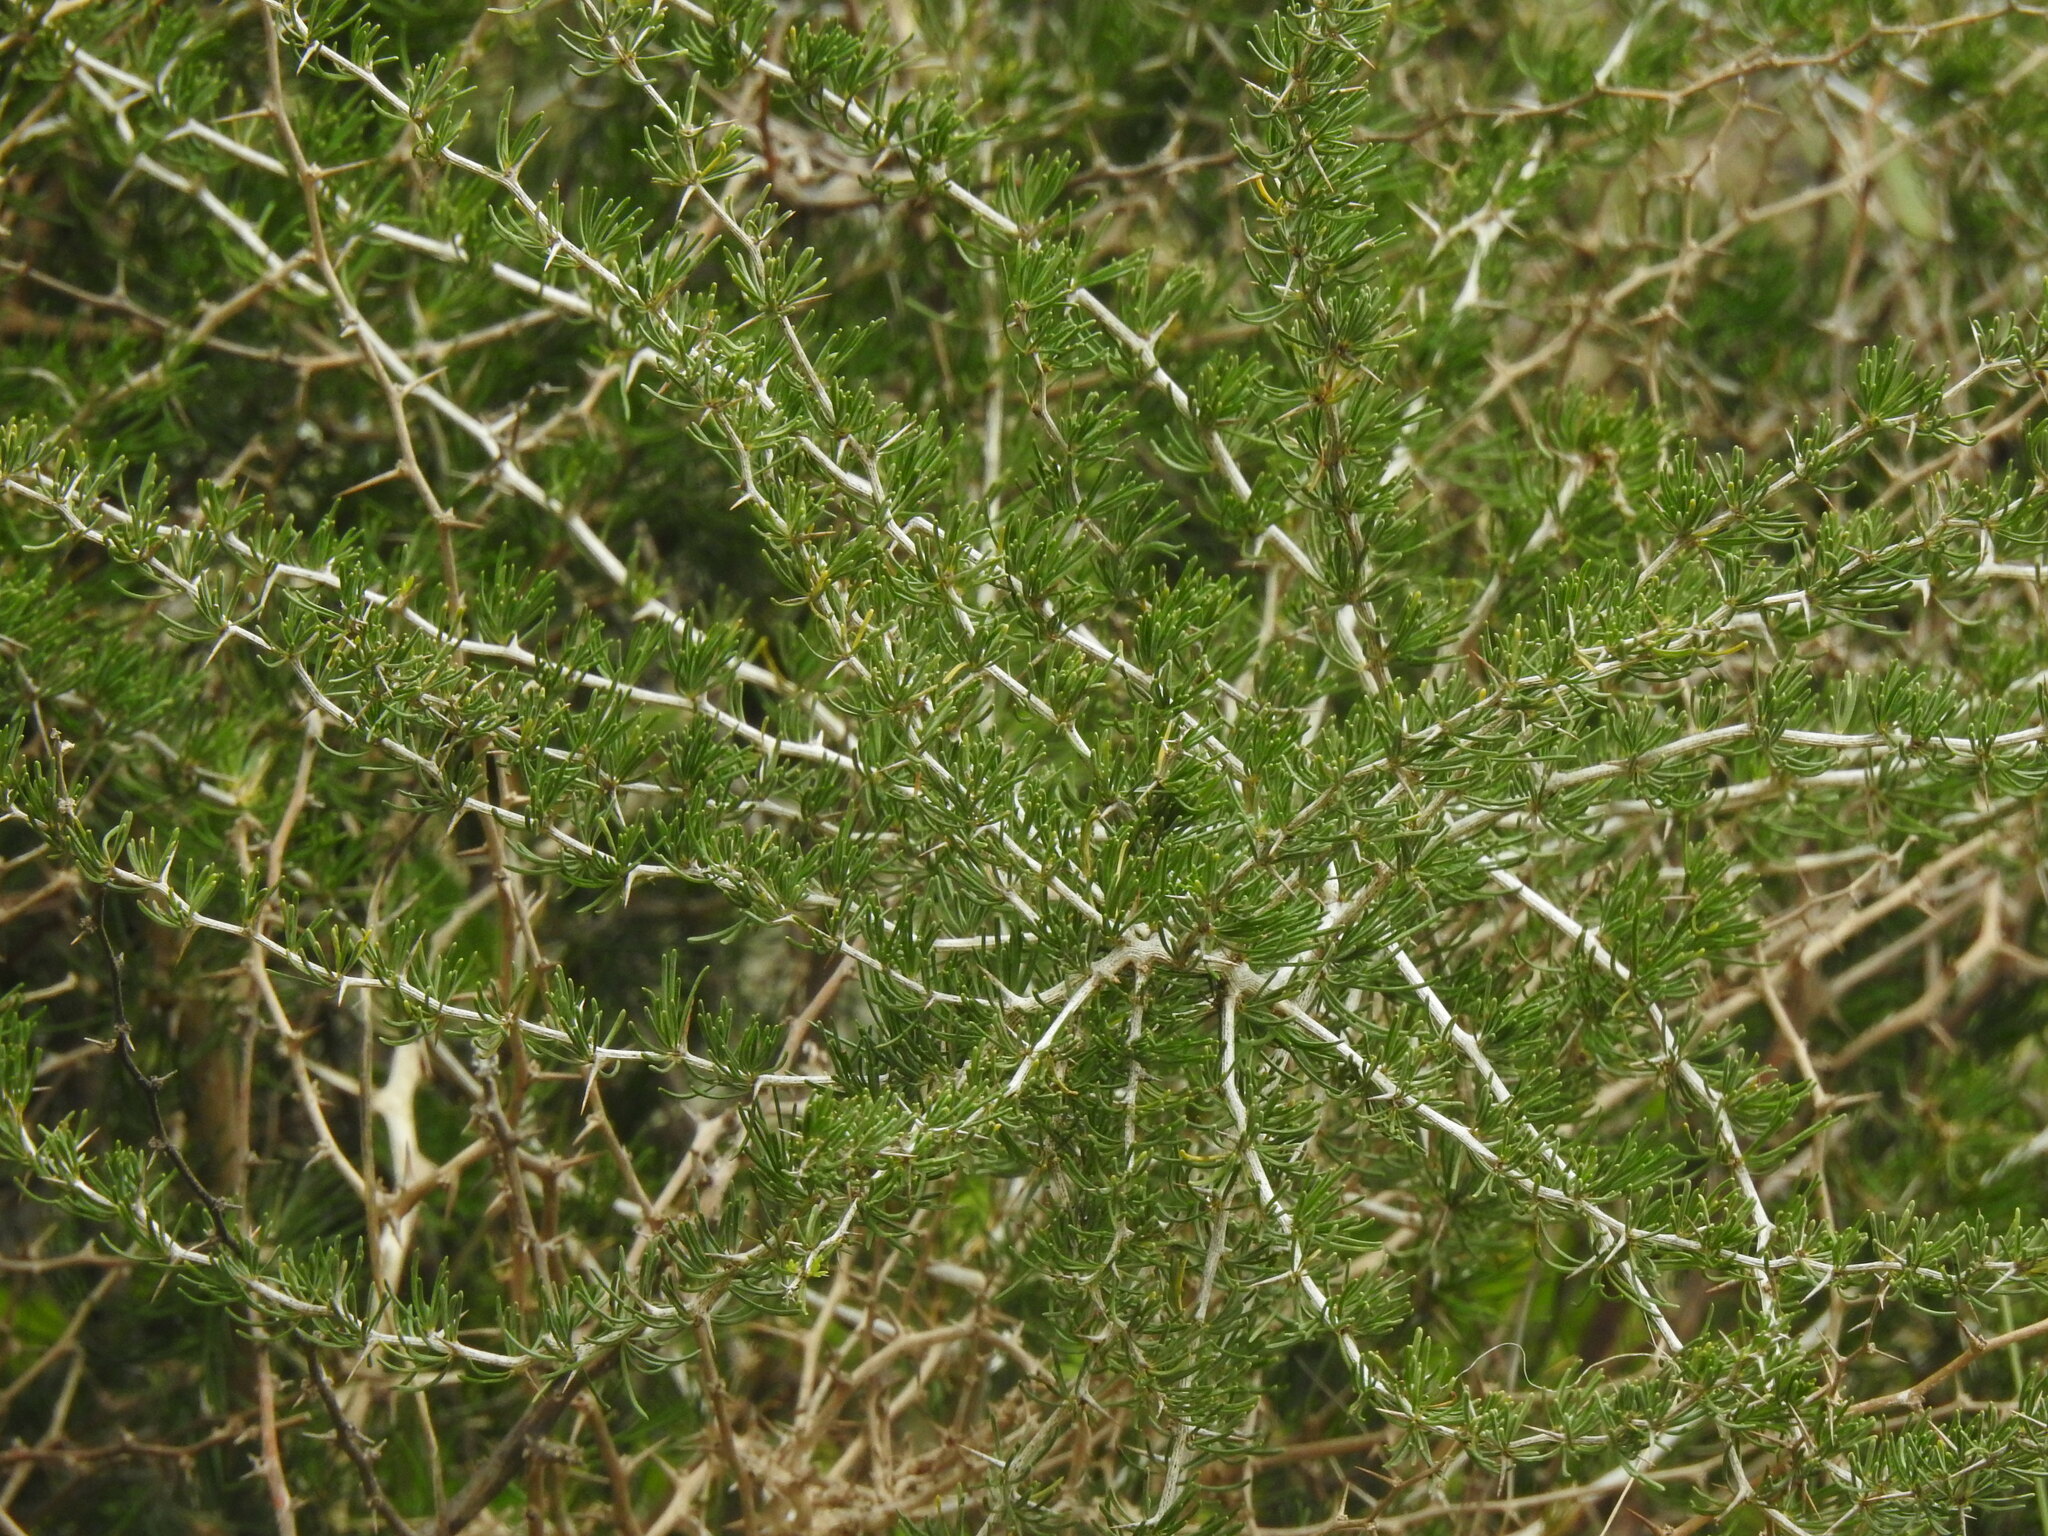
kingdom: Plantae
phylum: Tracheophyta
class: Liliopsida
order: Asparagales
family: Asparagaceae
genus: Asparagus
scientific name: Asparagus albus
